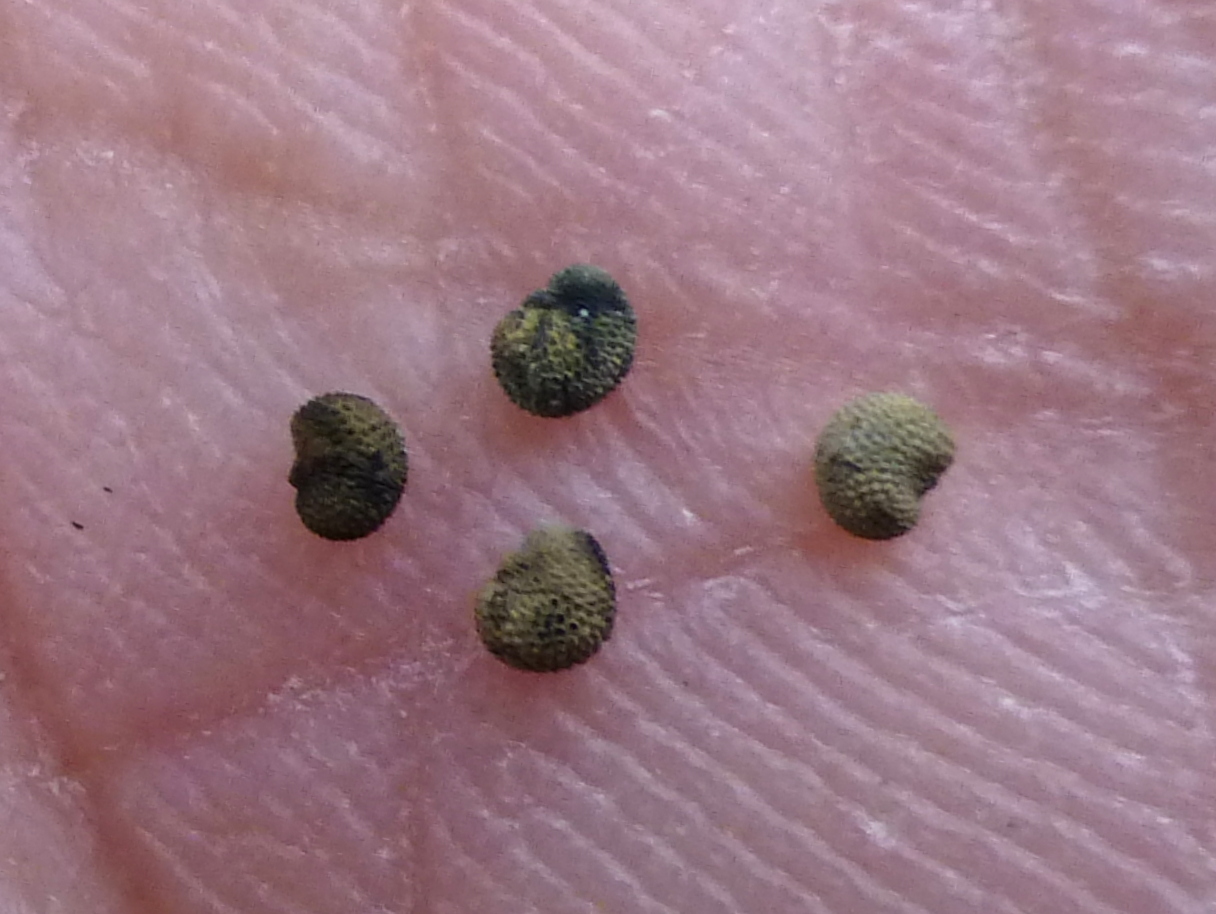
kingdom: Plantae
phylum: Tracheophyta
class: Magnoliopsida
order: Caryophyllales
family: Caryophyllaceae
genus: Silene
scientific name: Silene latifolia
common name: White campion
